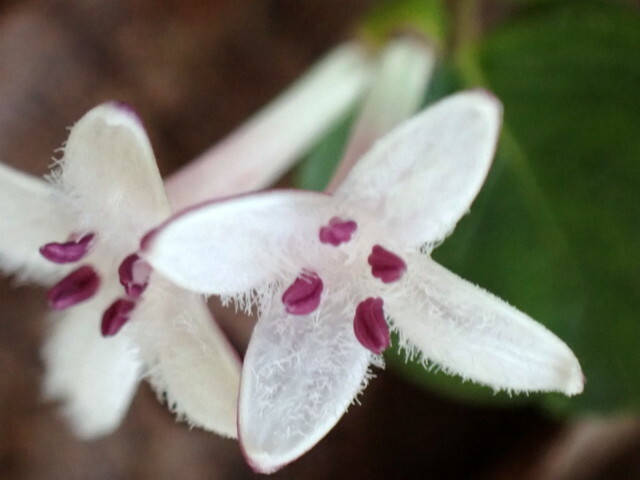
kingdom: Plantae
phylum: Tracheophyta
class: Magnoliopsida
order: Gentianales
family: Rubiaceae
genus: Mitchella
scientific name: Mitchella repens
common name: Partridge-berry
